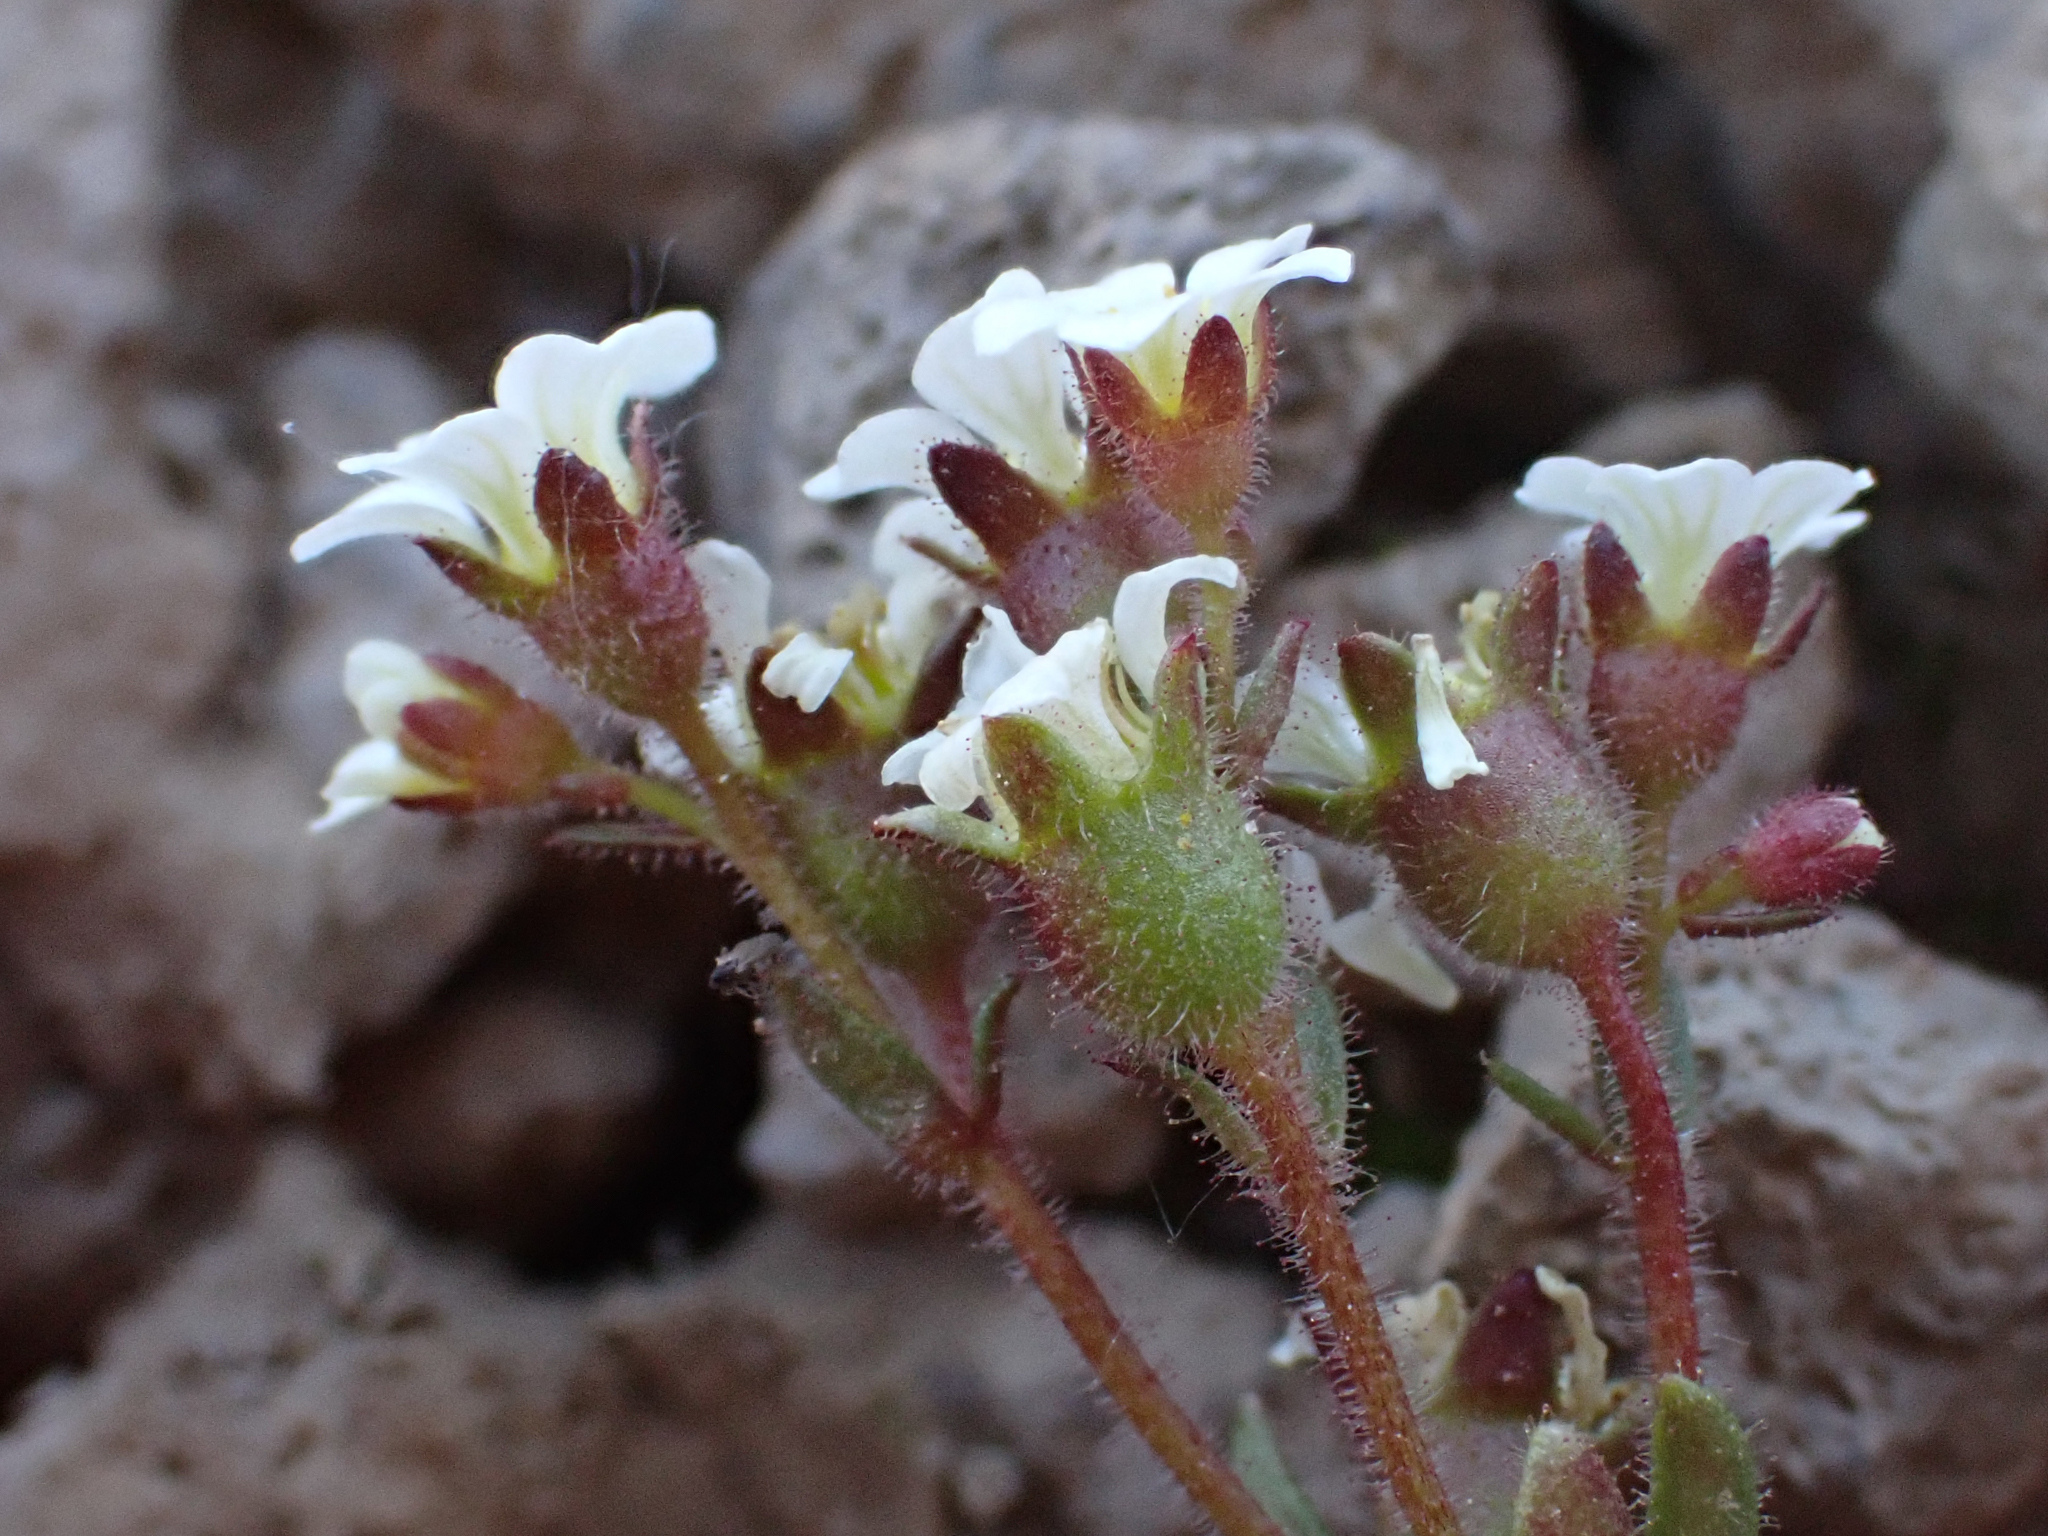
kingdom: Plantae
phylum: Tracheophyta
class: Magnoliopsida
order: Saxifragales
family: Saxifragaceae
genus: Saxifraga
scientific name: Saxifraga adscendens
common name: Ascending saxifrage
